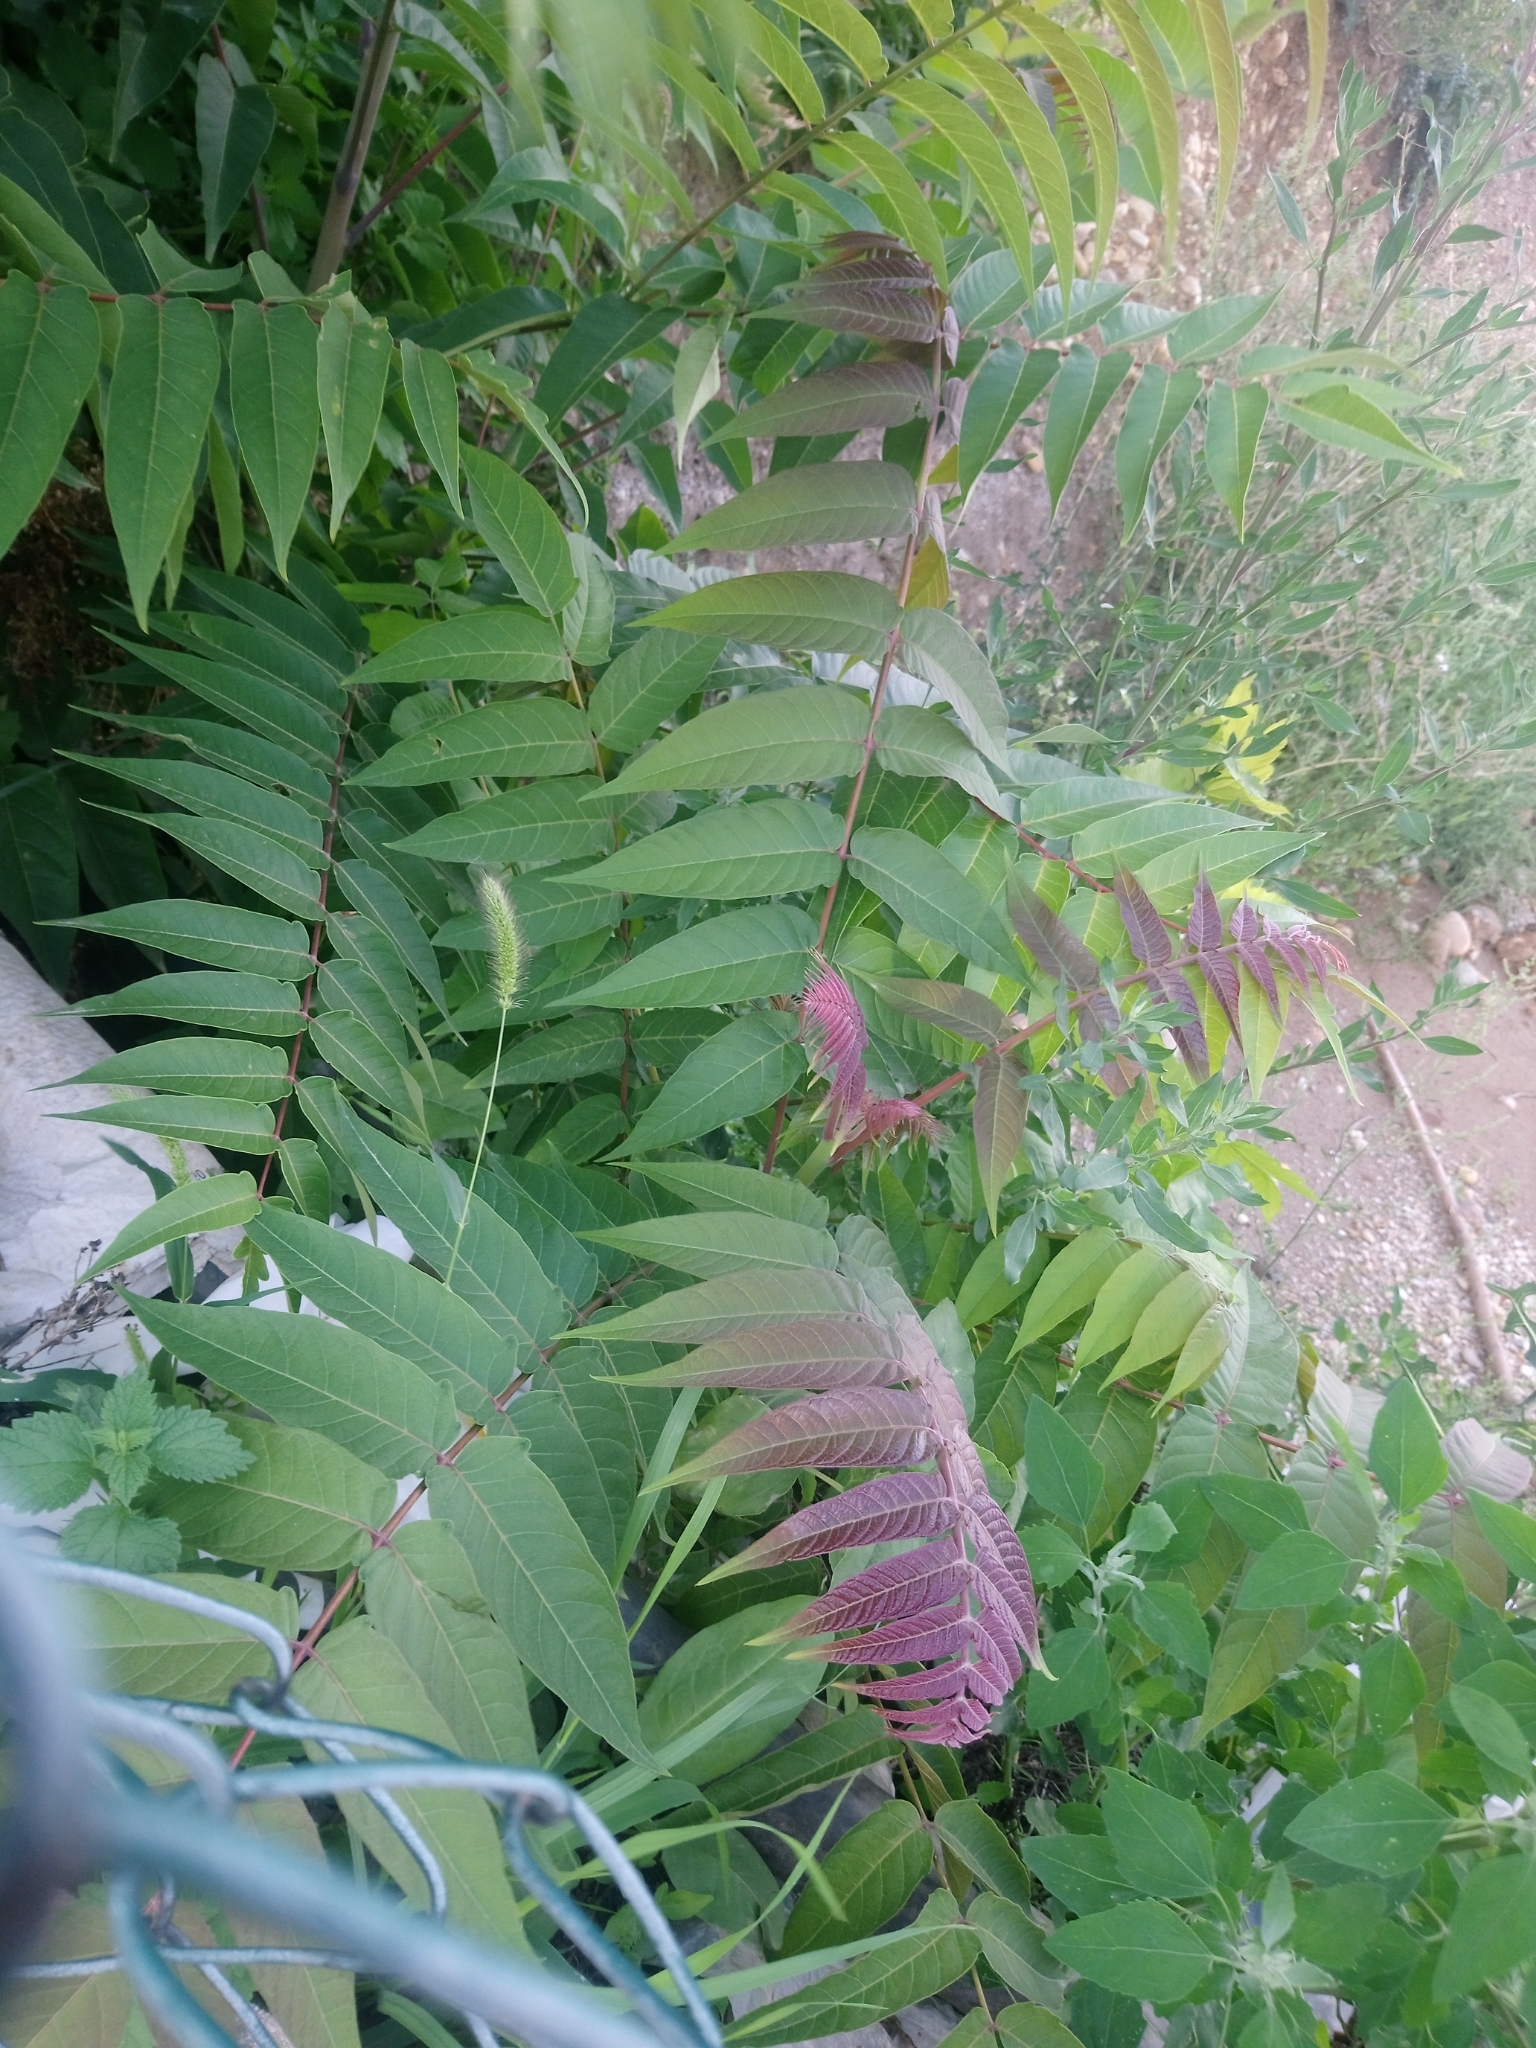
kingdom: Plantae
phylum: Tracheophyta
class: Magnoliopsida
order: Sapindales
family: Simaroubaceae
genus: Ailanthus
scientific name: Ailanthus altissima
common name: Tree-of-heaven
